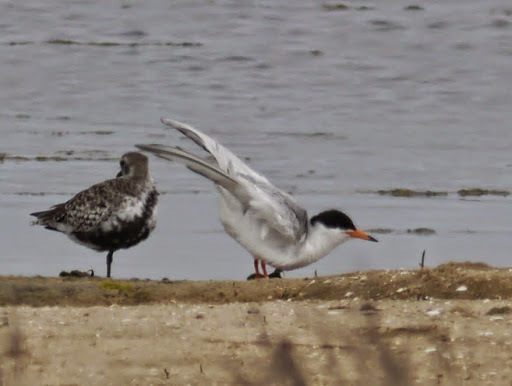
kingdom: Animalia
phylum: Chordata
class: Aves
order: Charadriiformes
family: Laridae
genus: Sterna
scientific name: Sterna forsteri
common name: Forster's tern
